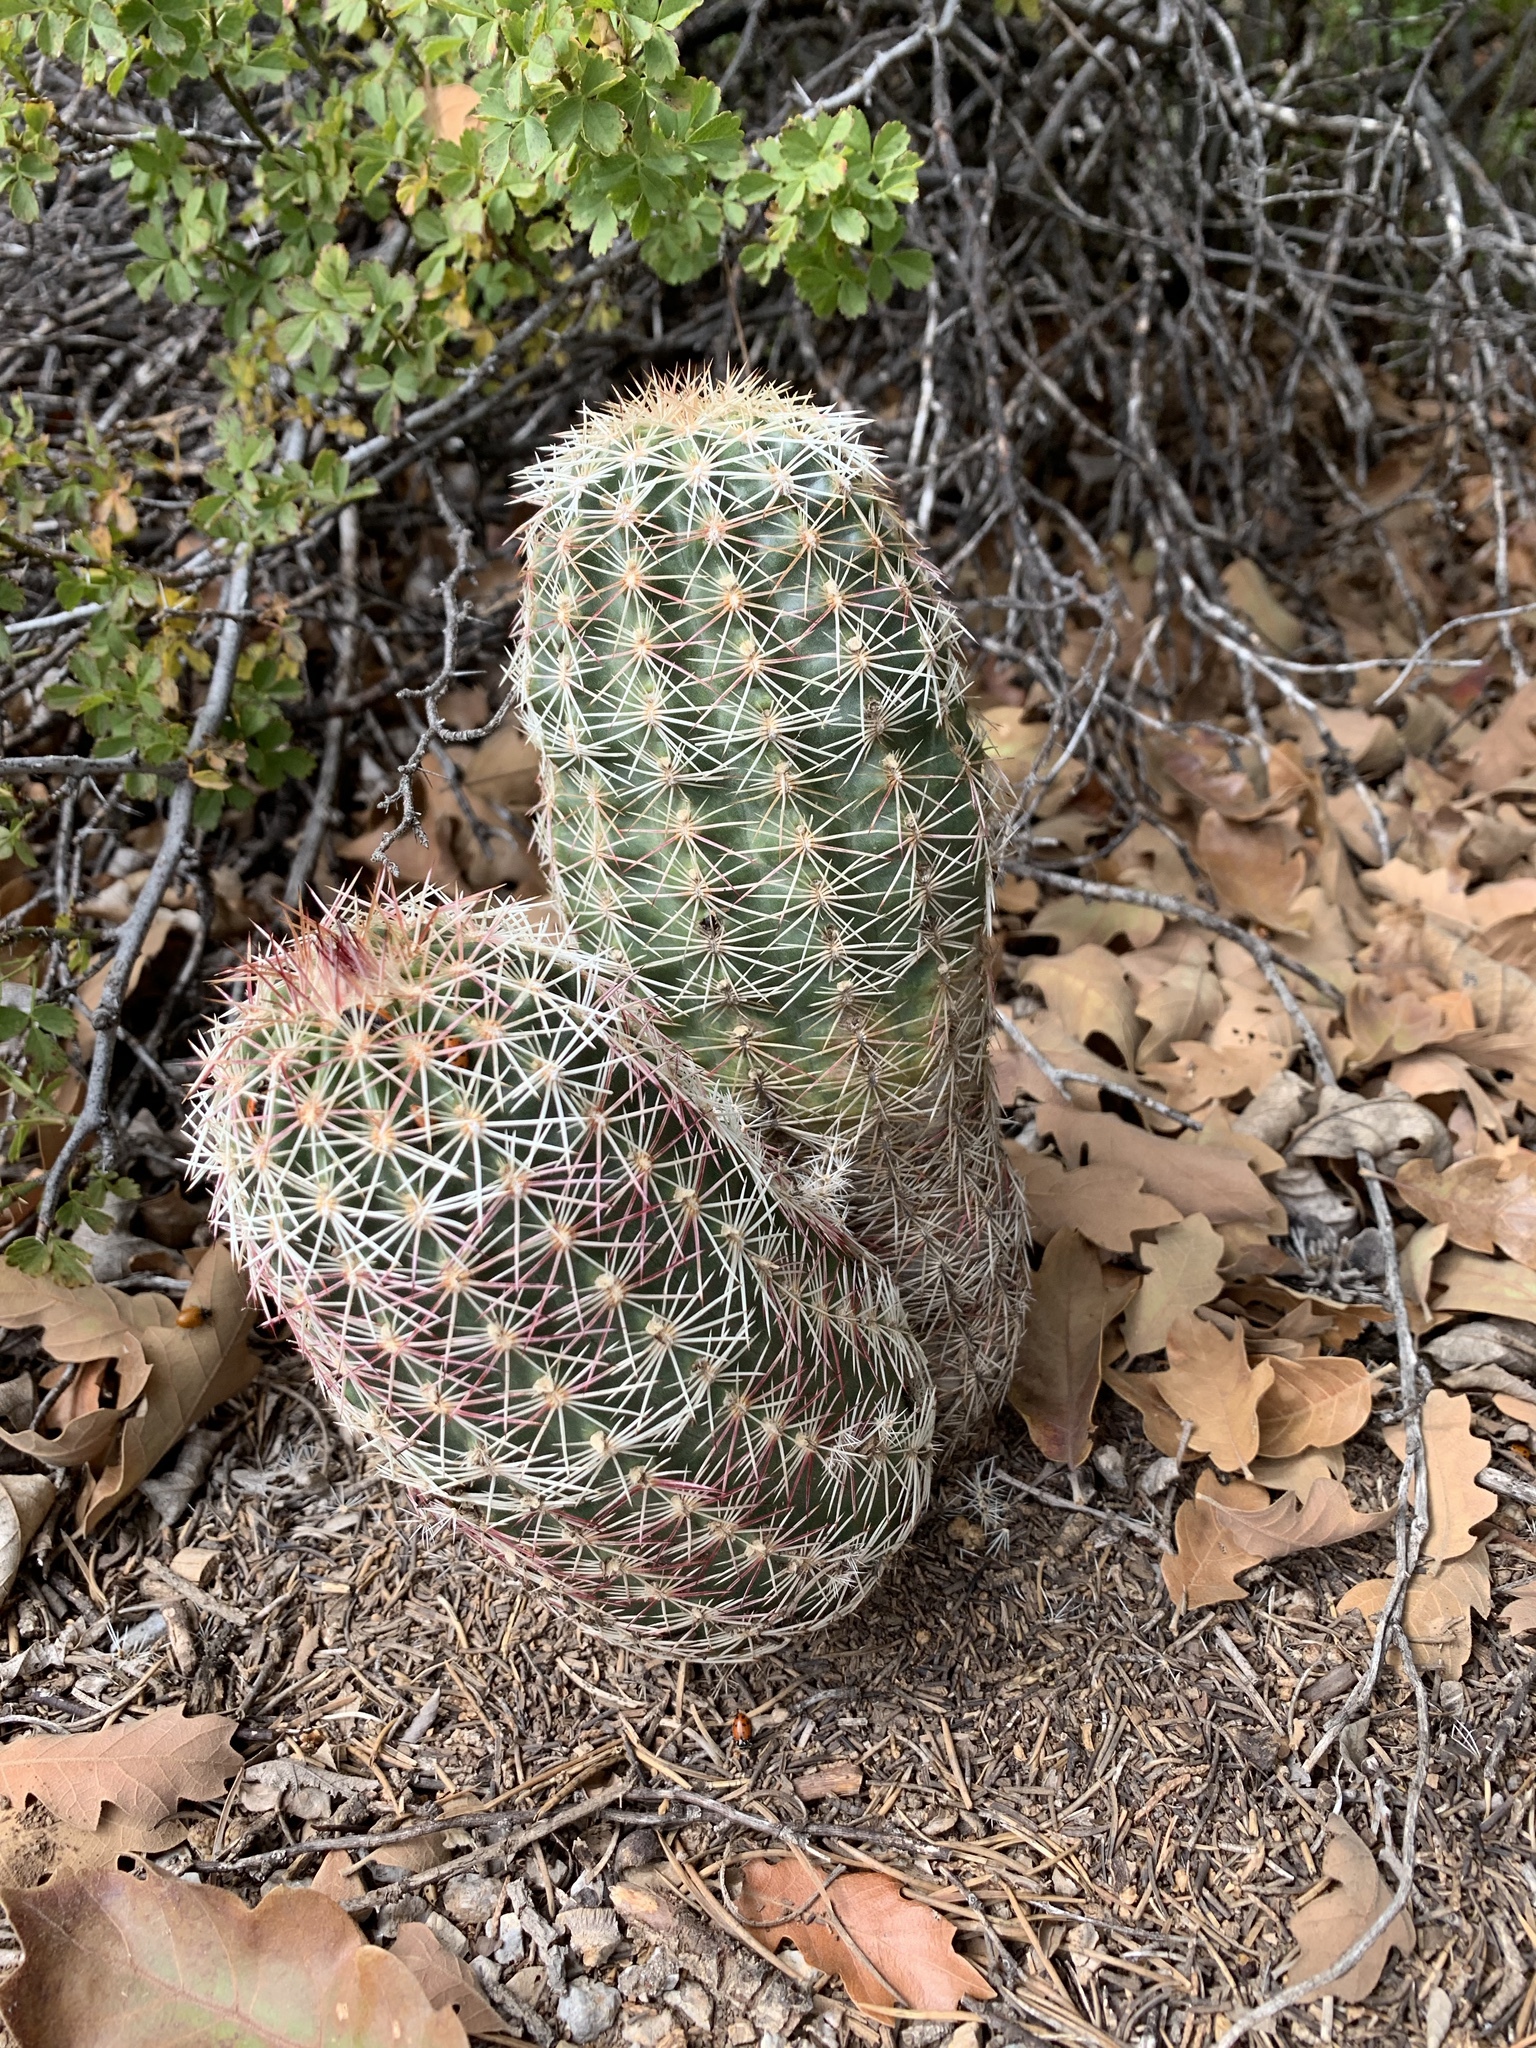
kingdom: Plantae
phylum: Tracheophyta
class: Magnoliopsida
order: Caryophyllales
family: Cactaceae
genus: Echinocereus
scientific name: Echinocereus viridiflorus
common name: Nylon hedgehog cactus
